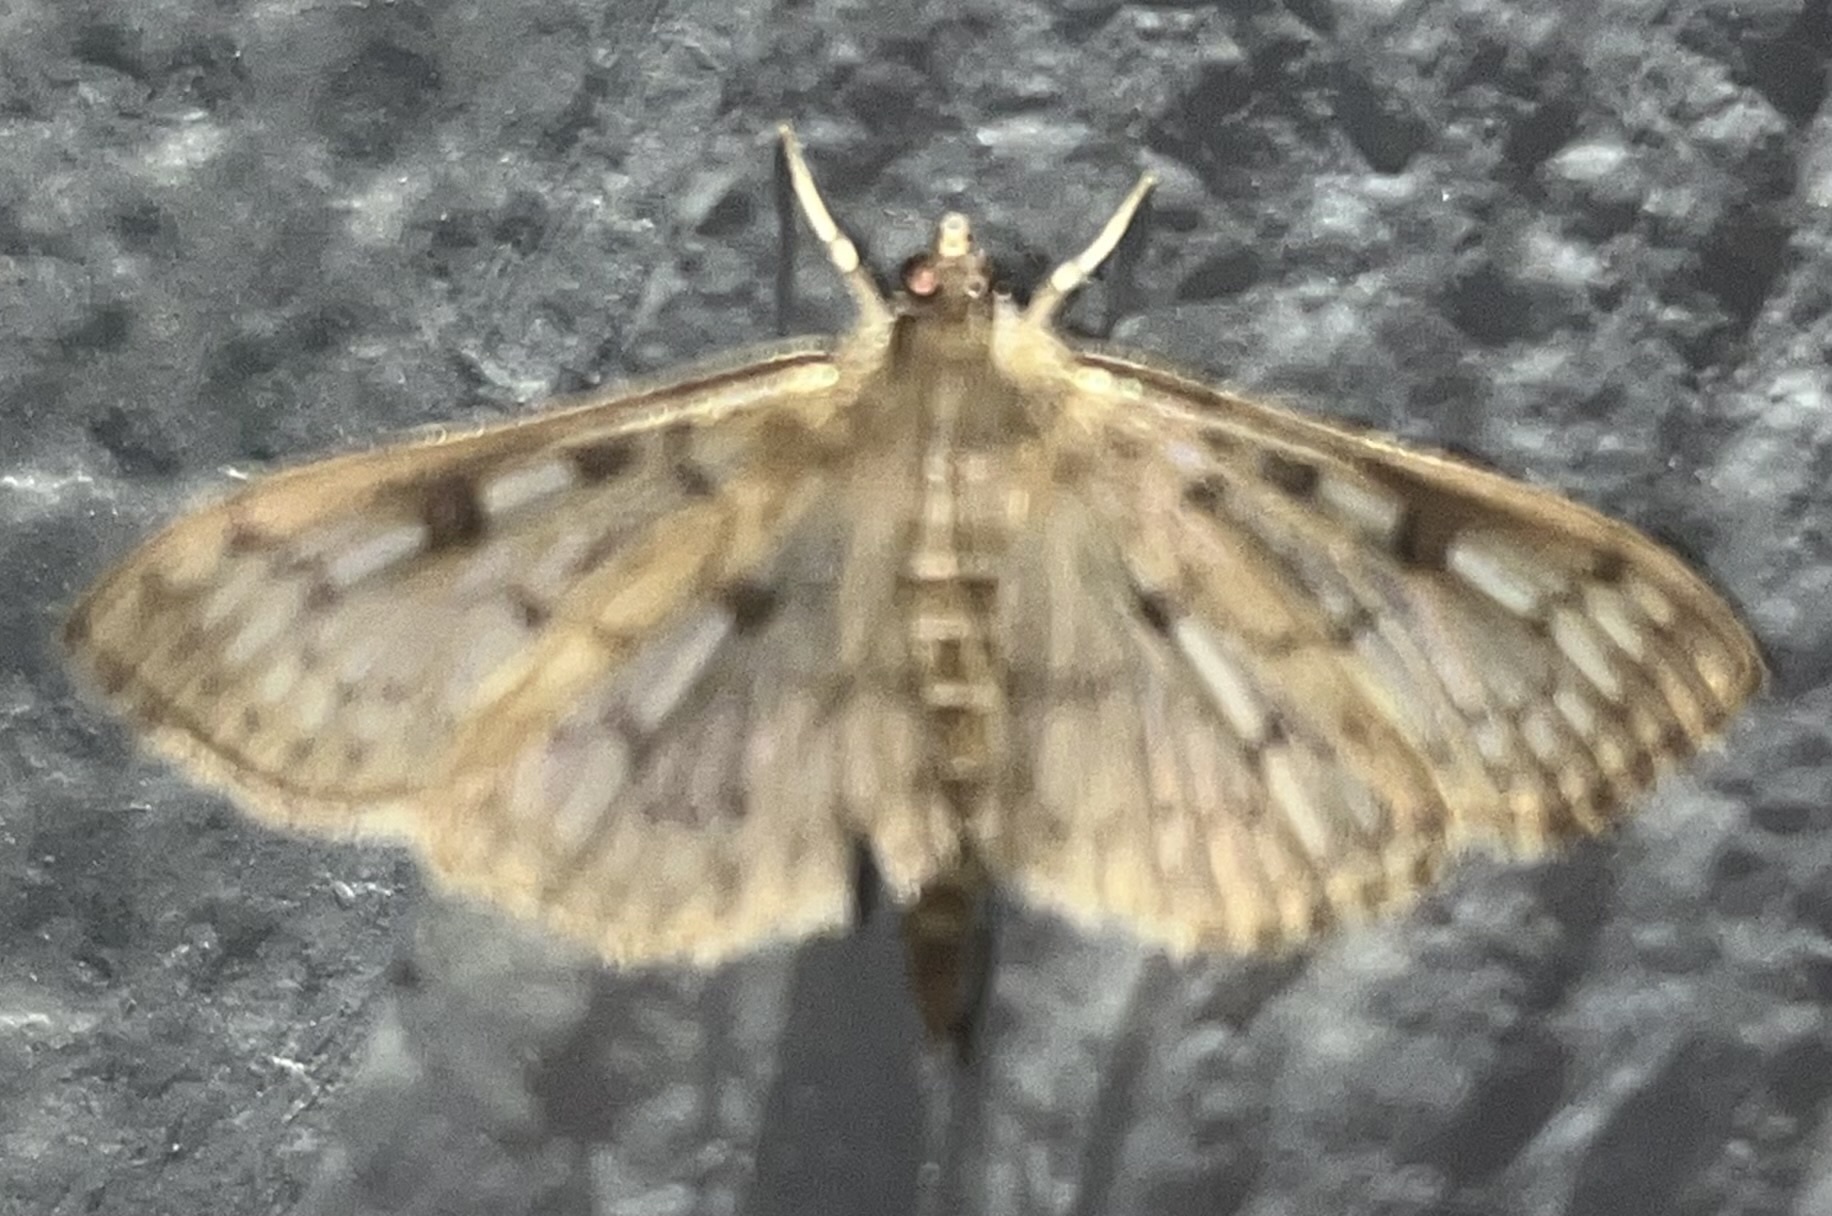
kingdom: Animalia
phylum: Arthropoda
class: Insecta
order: Lepidoptera
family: Crambidae
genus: Herpetogramma
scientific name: Herpetogramma aquilonalis
